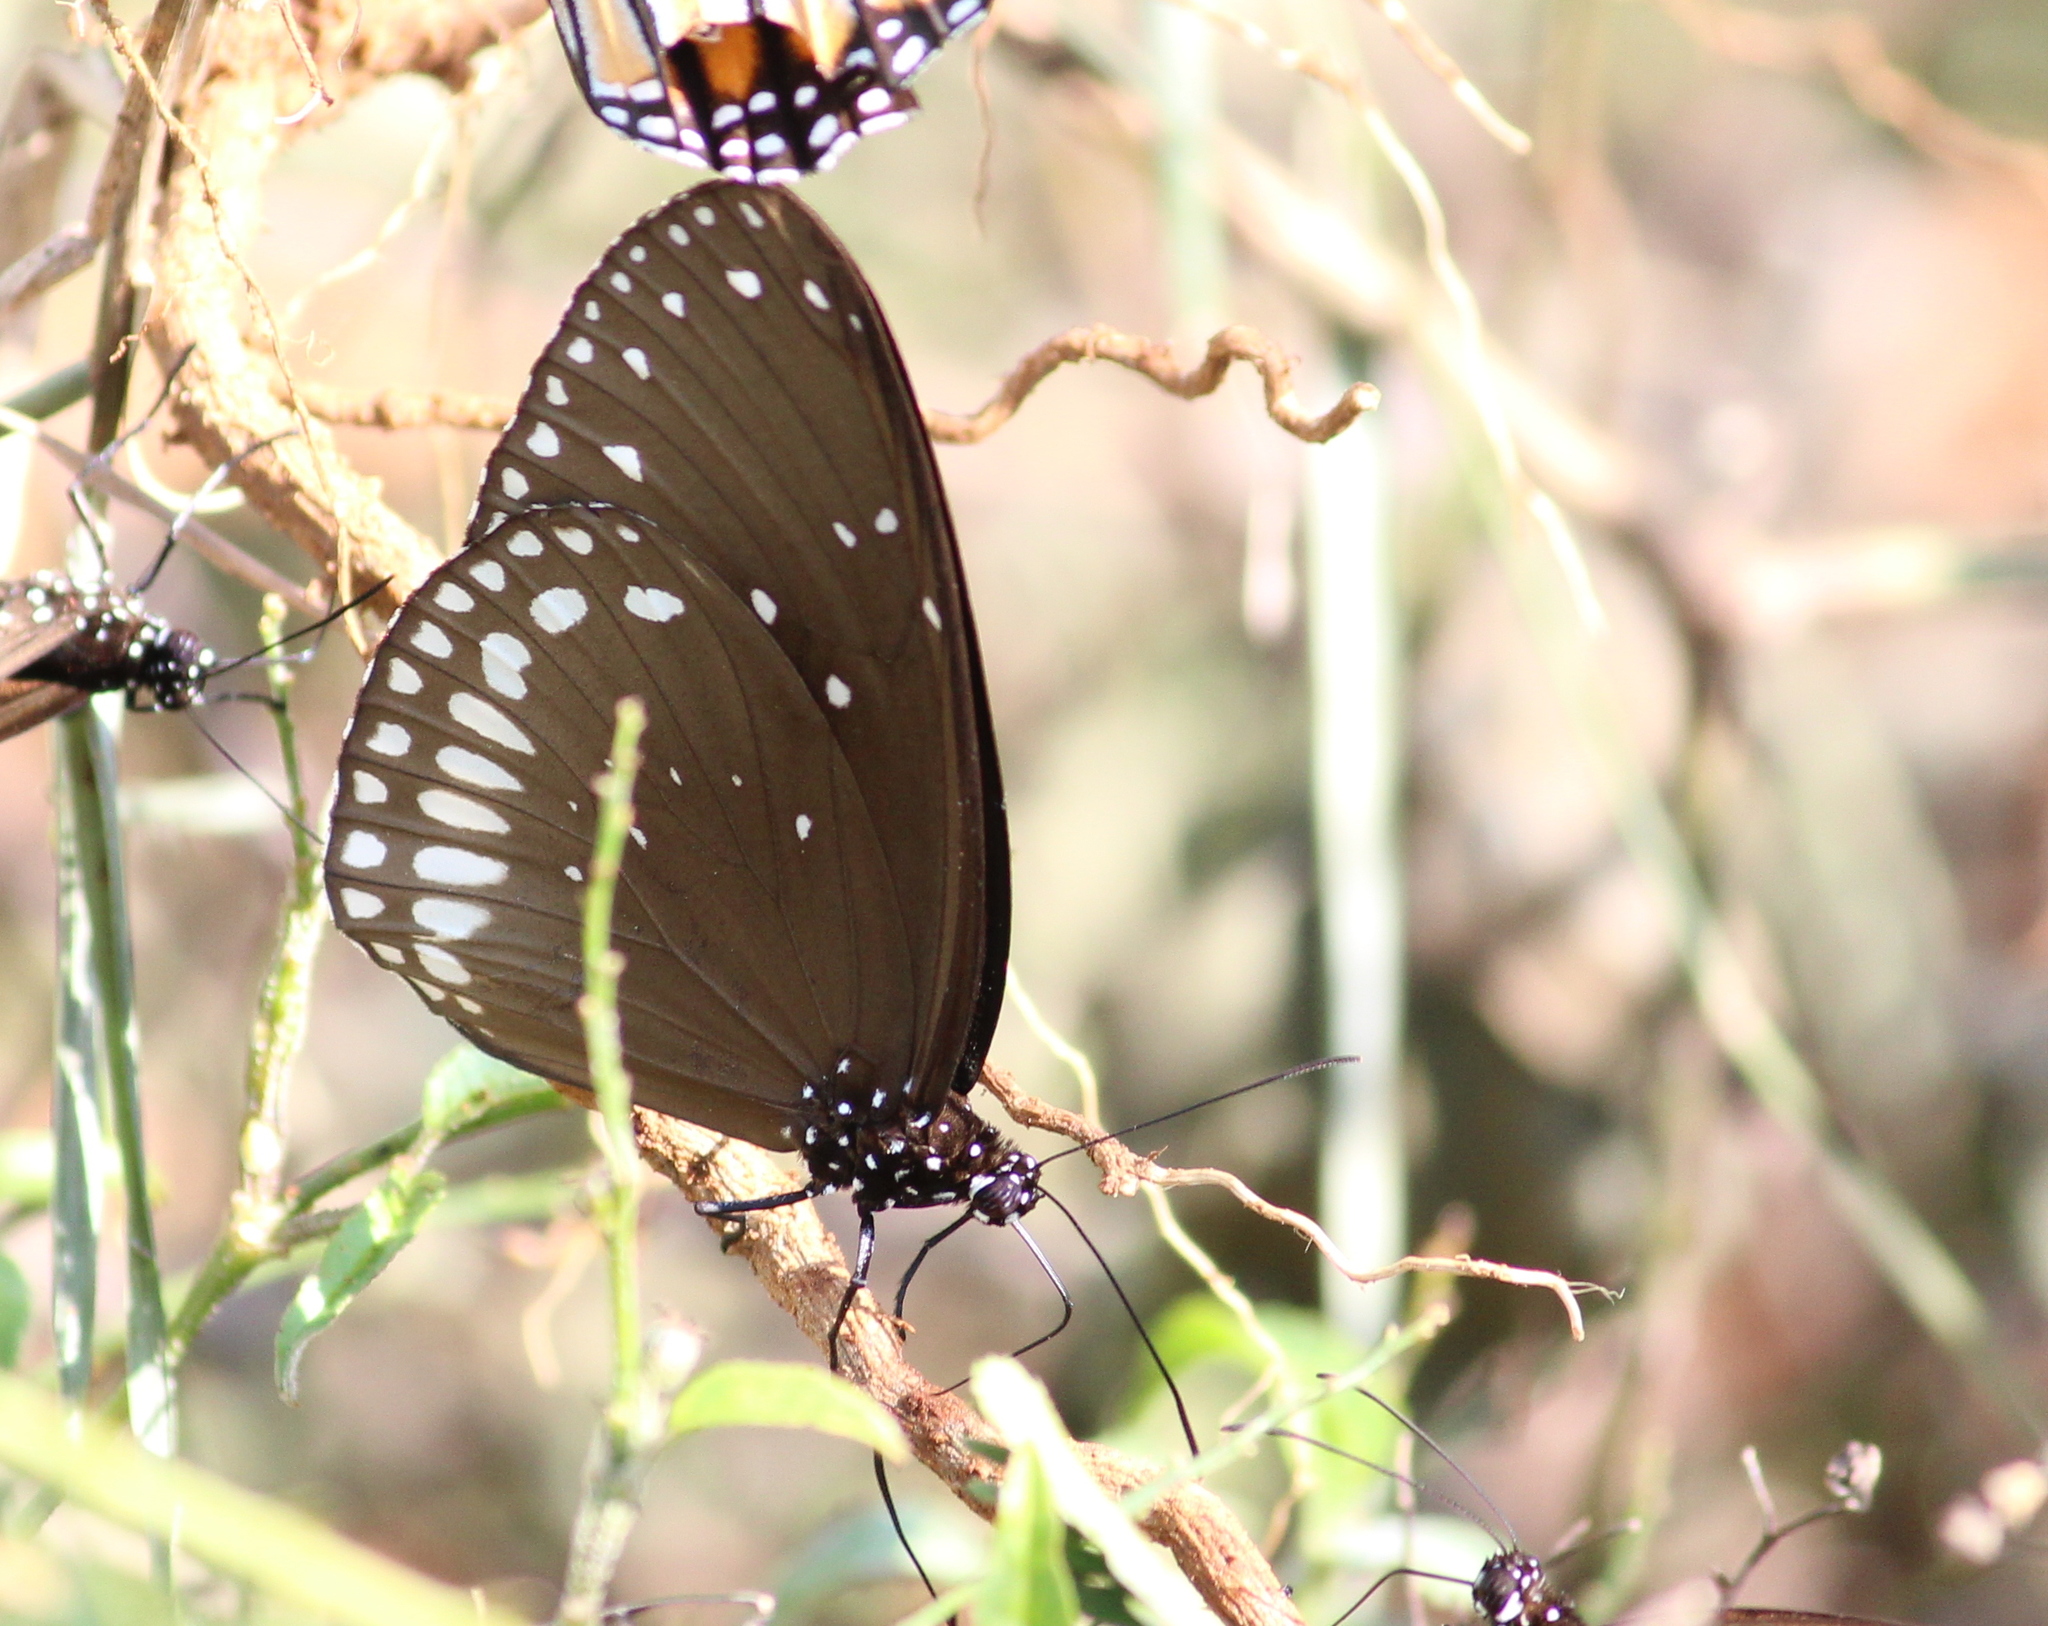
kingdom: Animalia
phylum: Arthropoda
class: Insecta
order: Lepidoptera
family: Nymphalidae
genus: Euploea
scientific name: Euploea sylvester
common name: Double-branded crow butterfly
